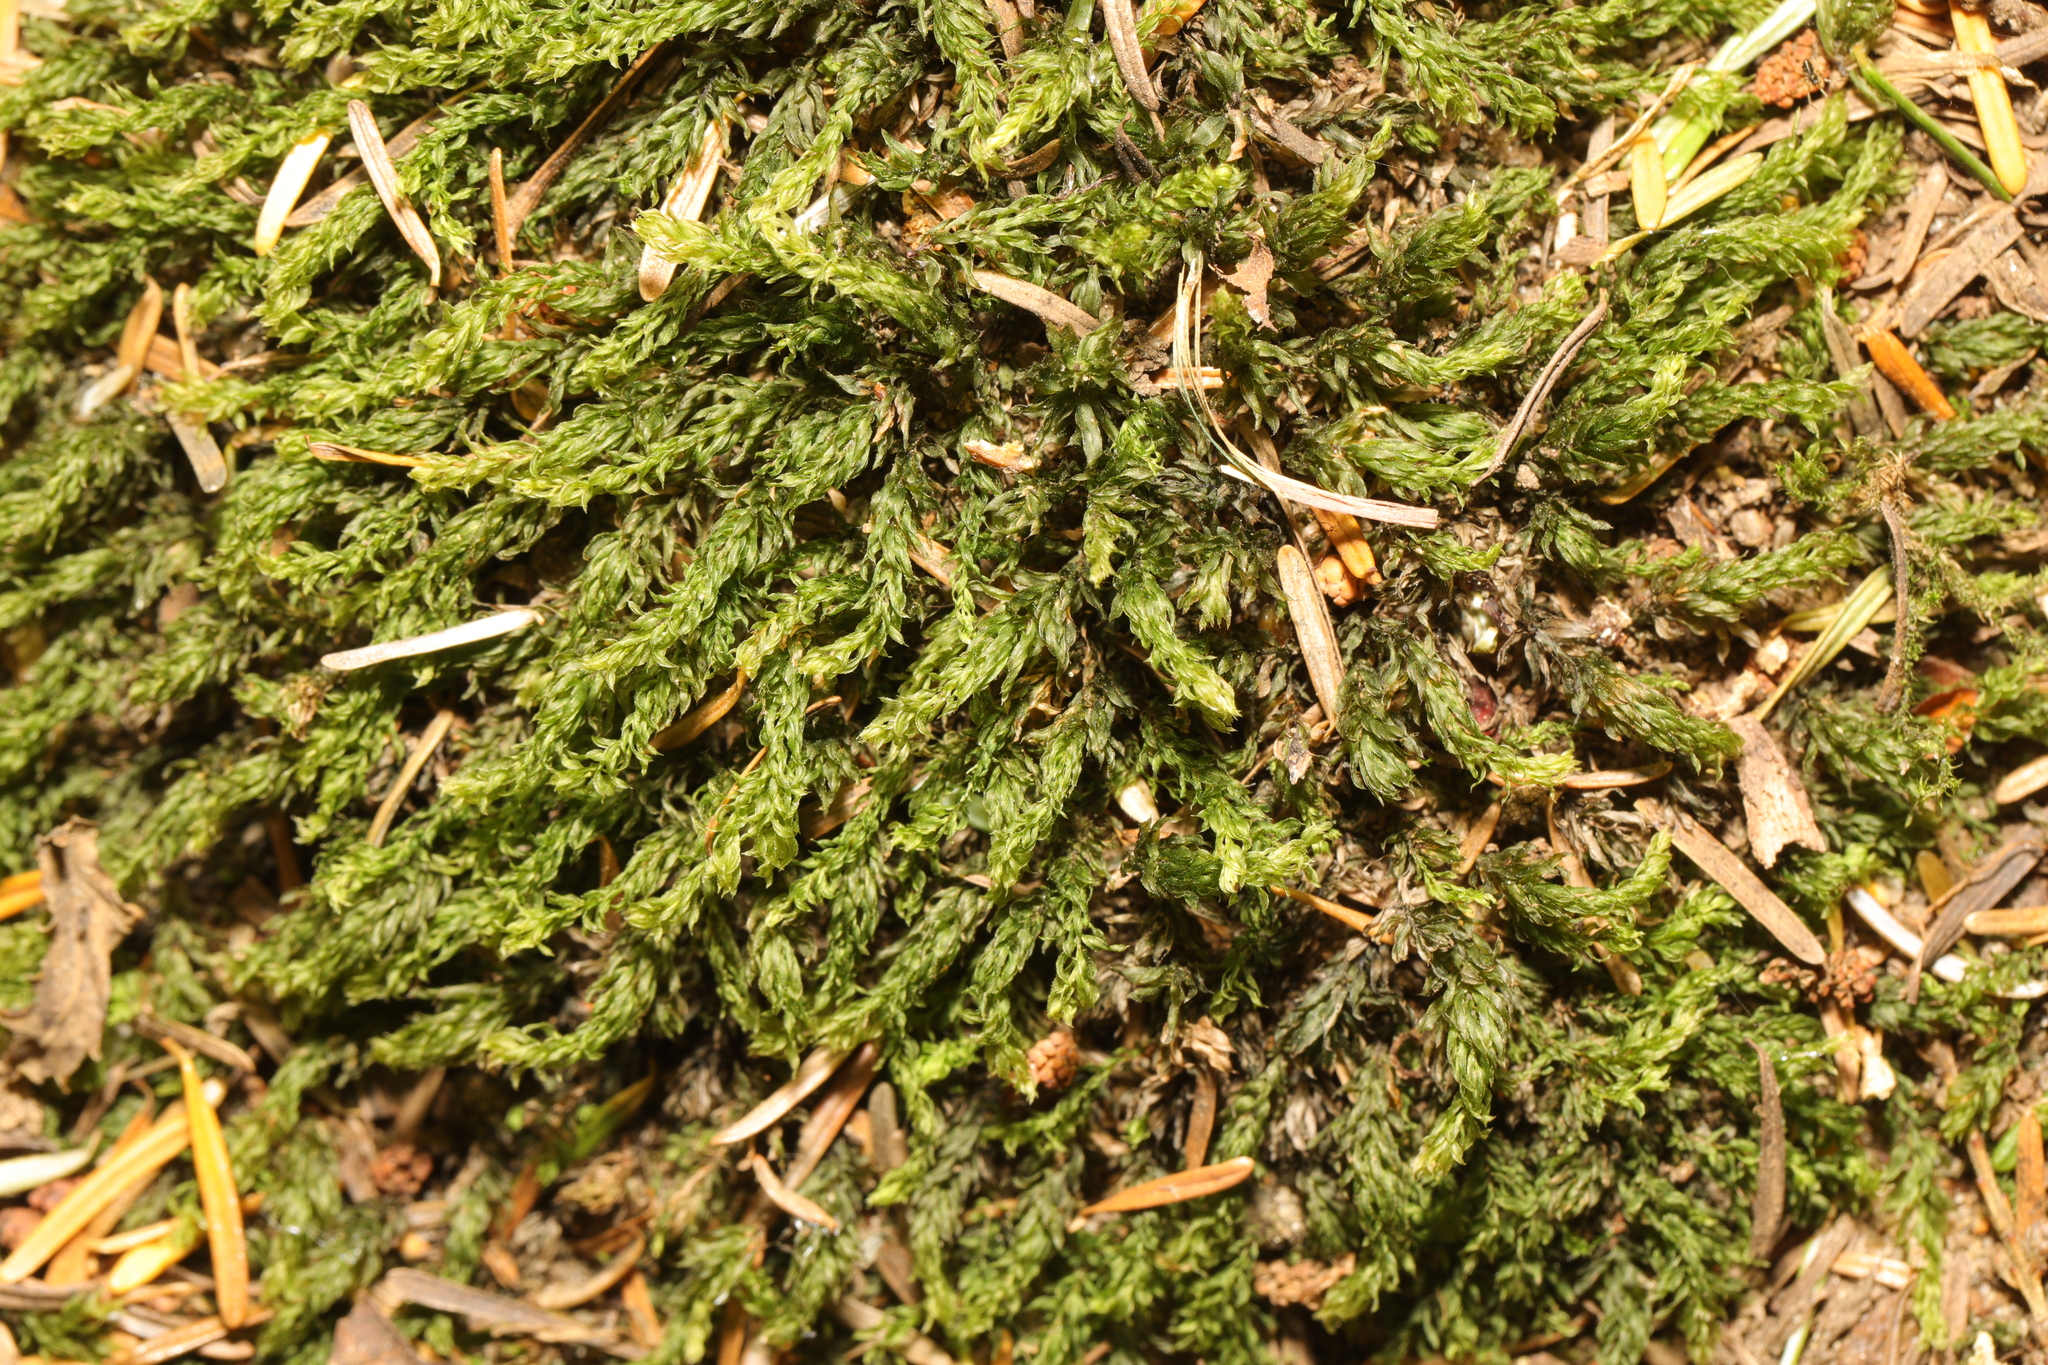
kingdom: Plantae
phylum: Bryophyta
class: Bryopsida
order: Bryales
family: Mniaceae
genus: Mnium
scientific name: Mnium hornum
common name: Swan's-neck leafy moss
